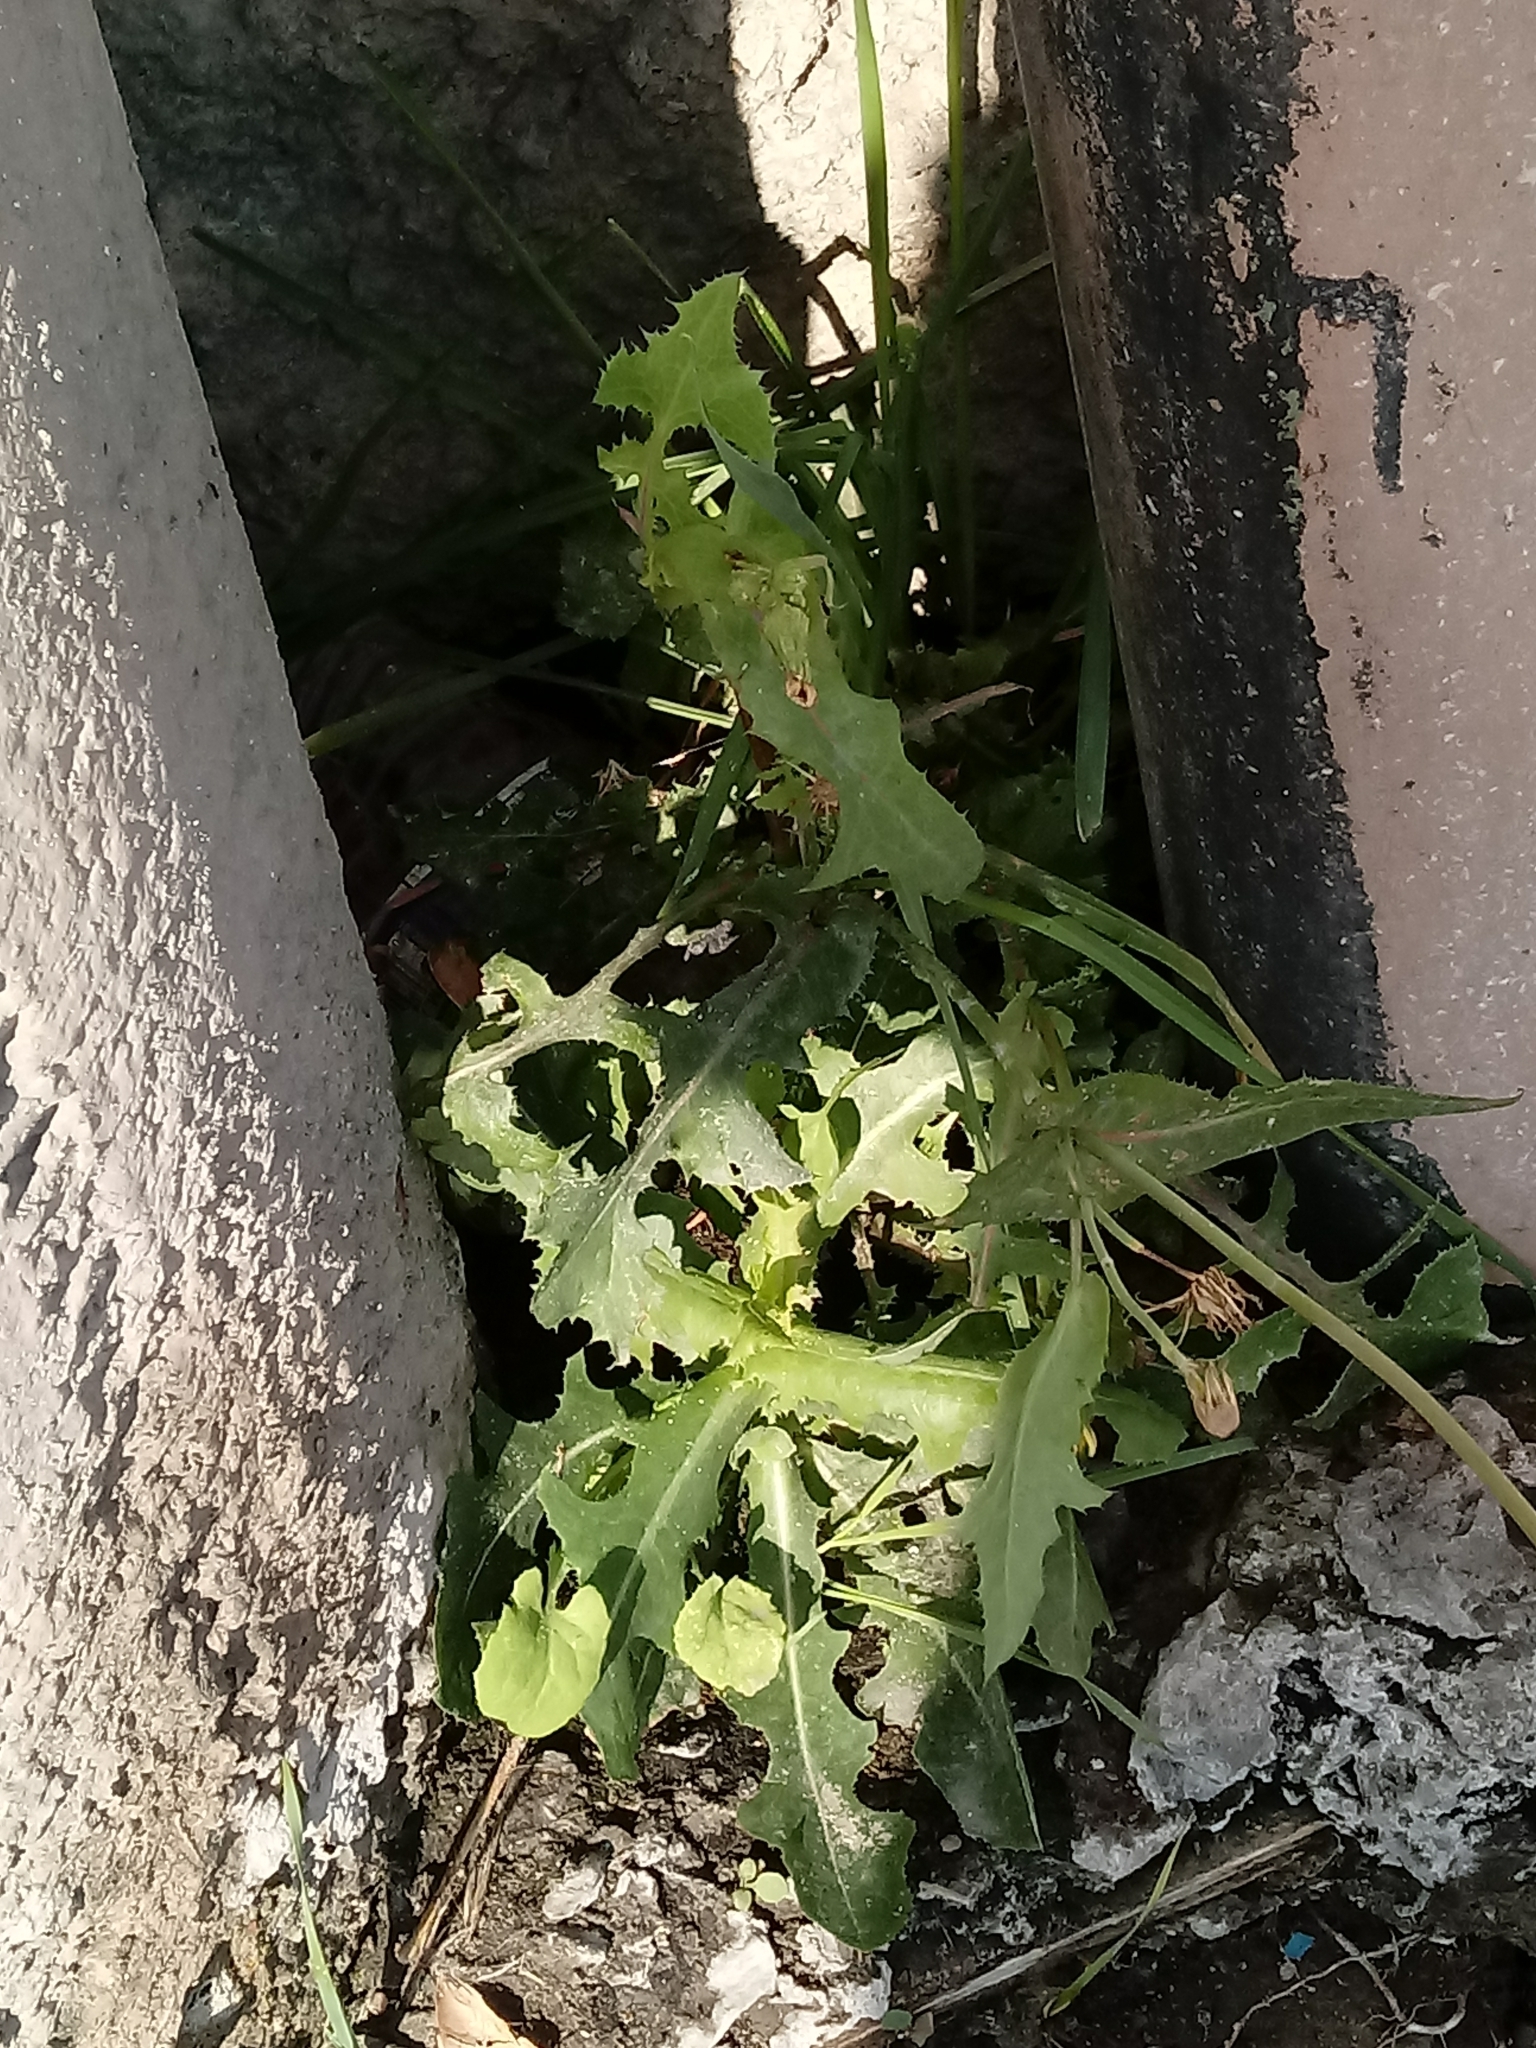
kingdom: Plantae
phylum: Tracheophyta
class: Magnoliopsida
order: Asterales
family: Asteraceae
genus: Sonchus
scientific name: Sonchus oleraceus
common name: Common sowthistle
